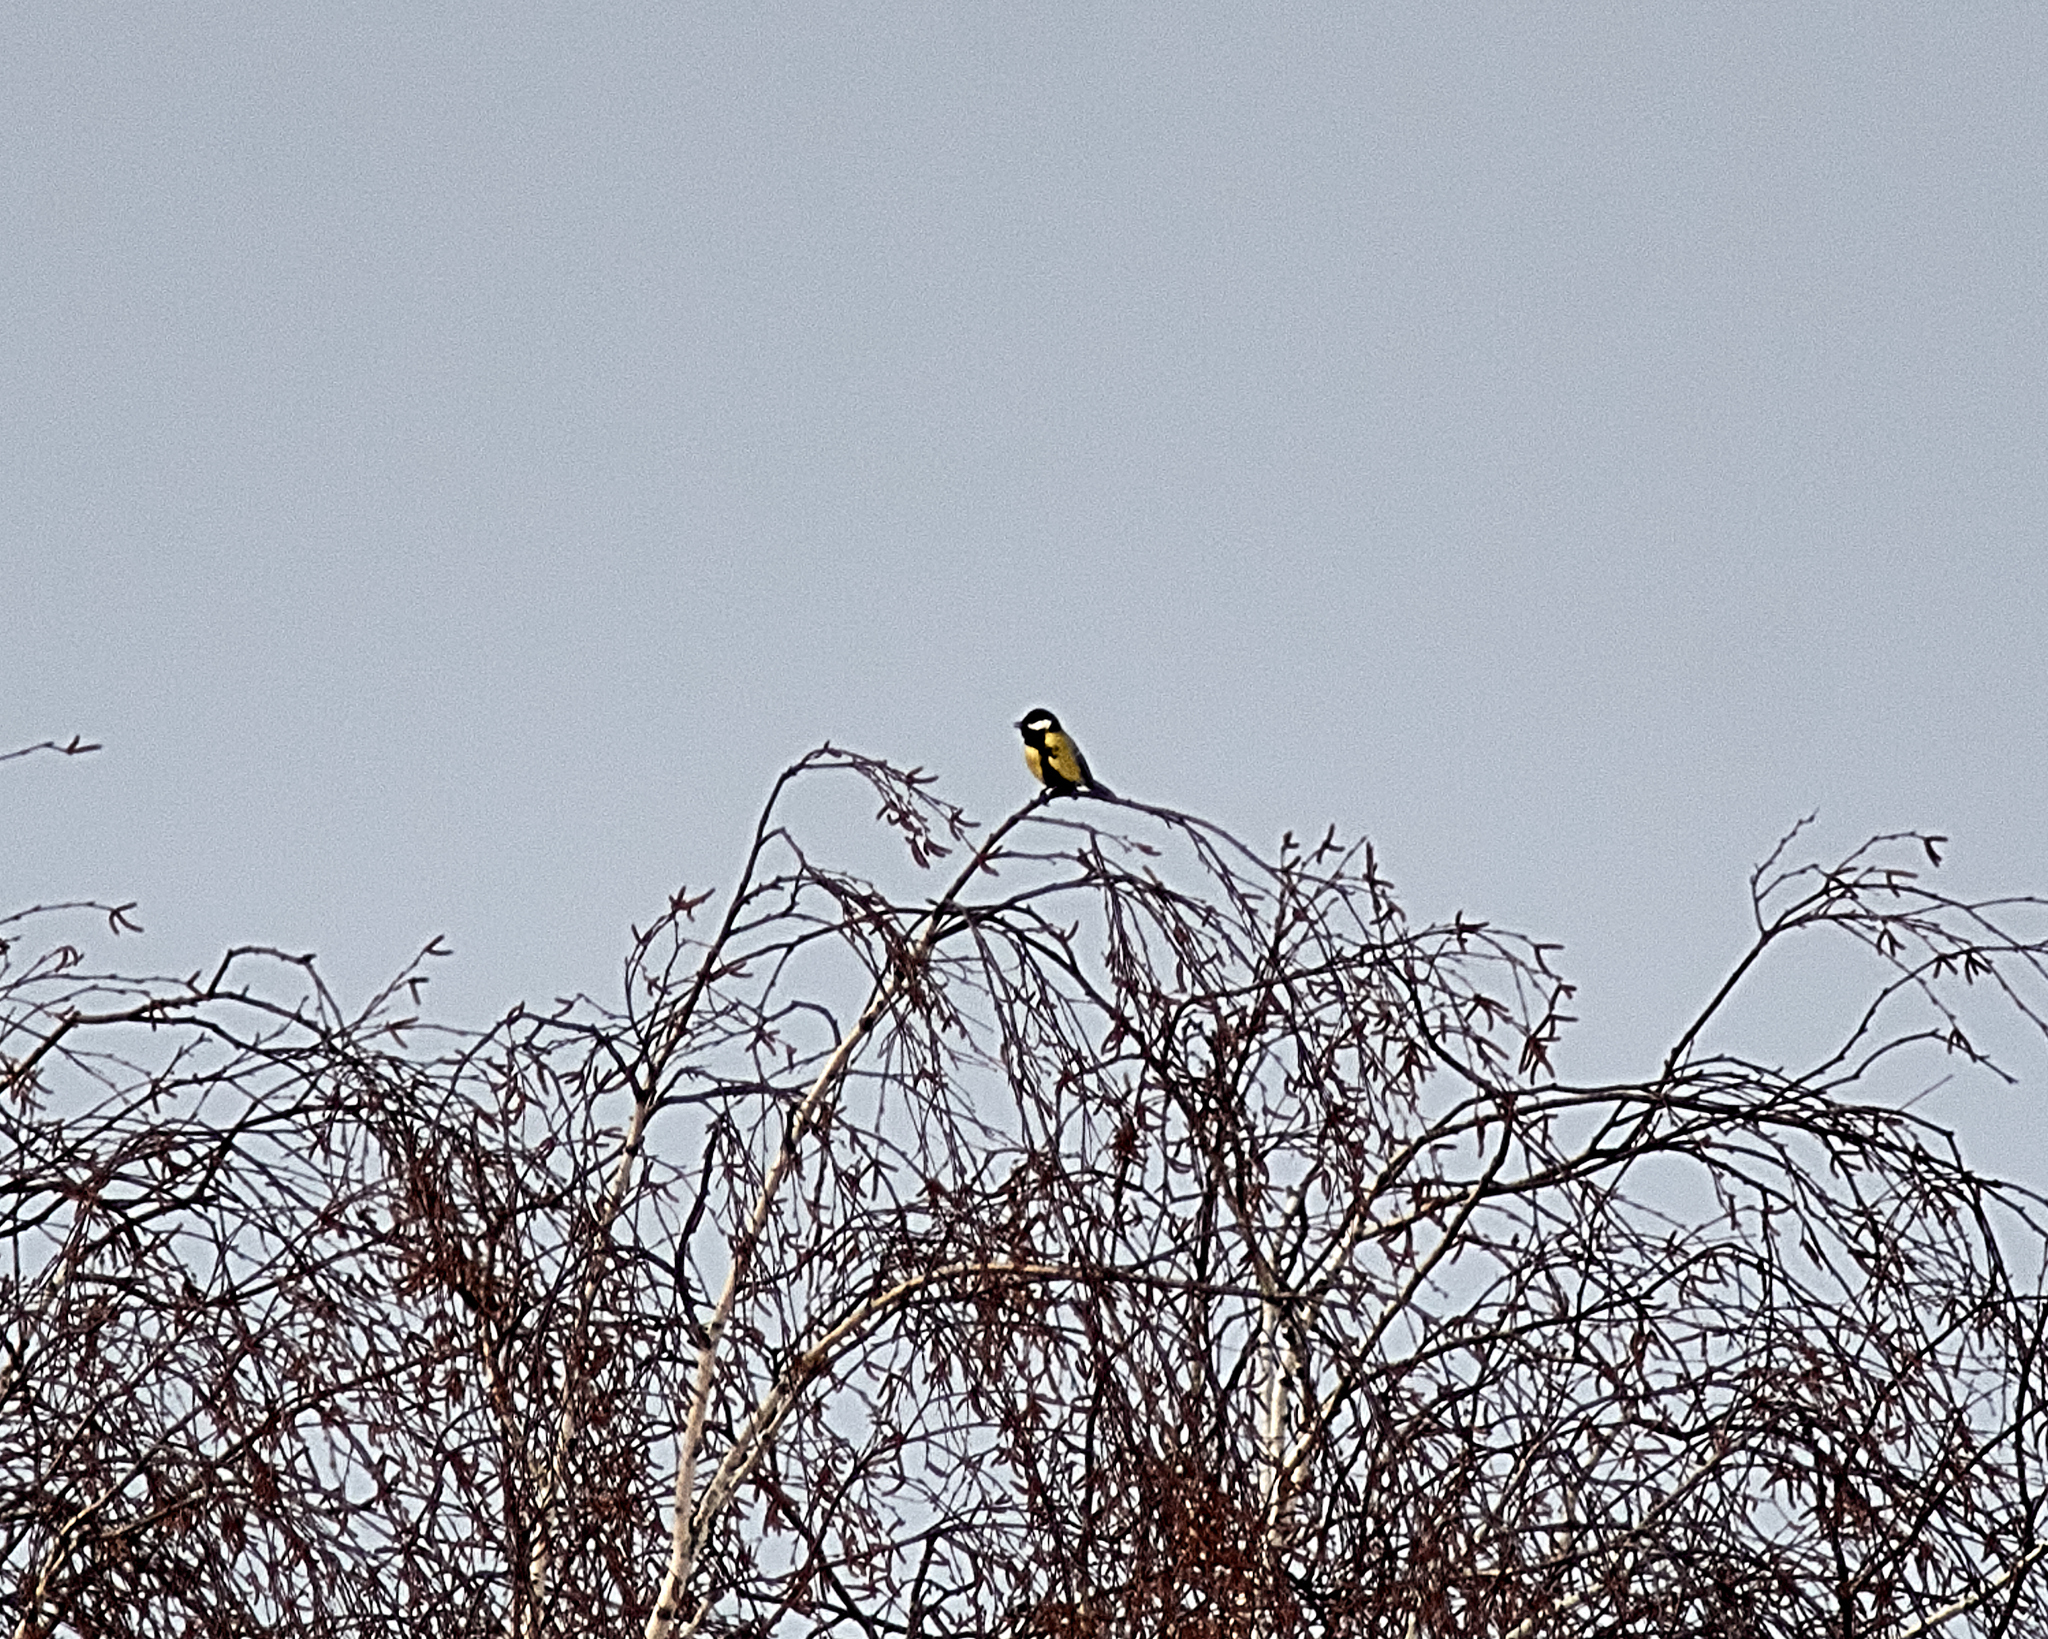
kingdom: Animalia
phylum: Chordata
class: Aves
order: Passeriformes
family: Paridae
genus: Parus
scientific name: Parus major
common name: Great tit
